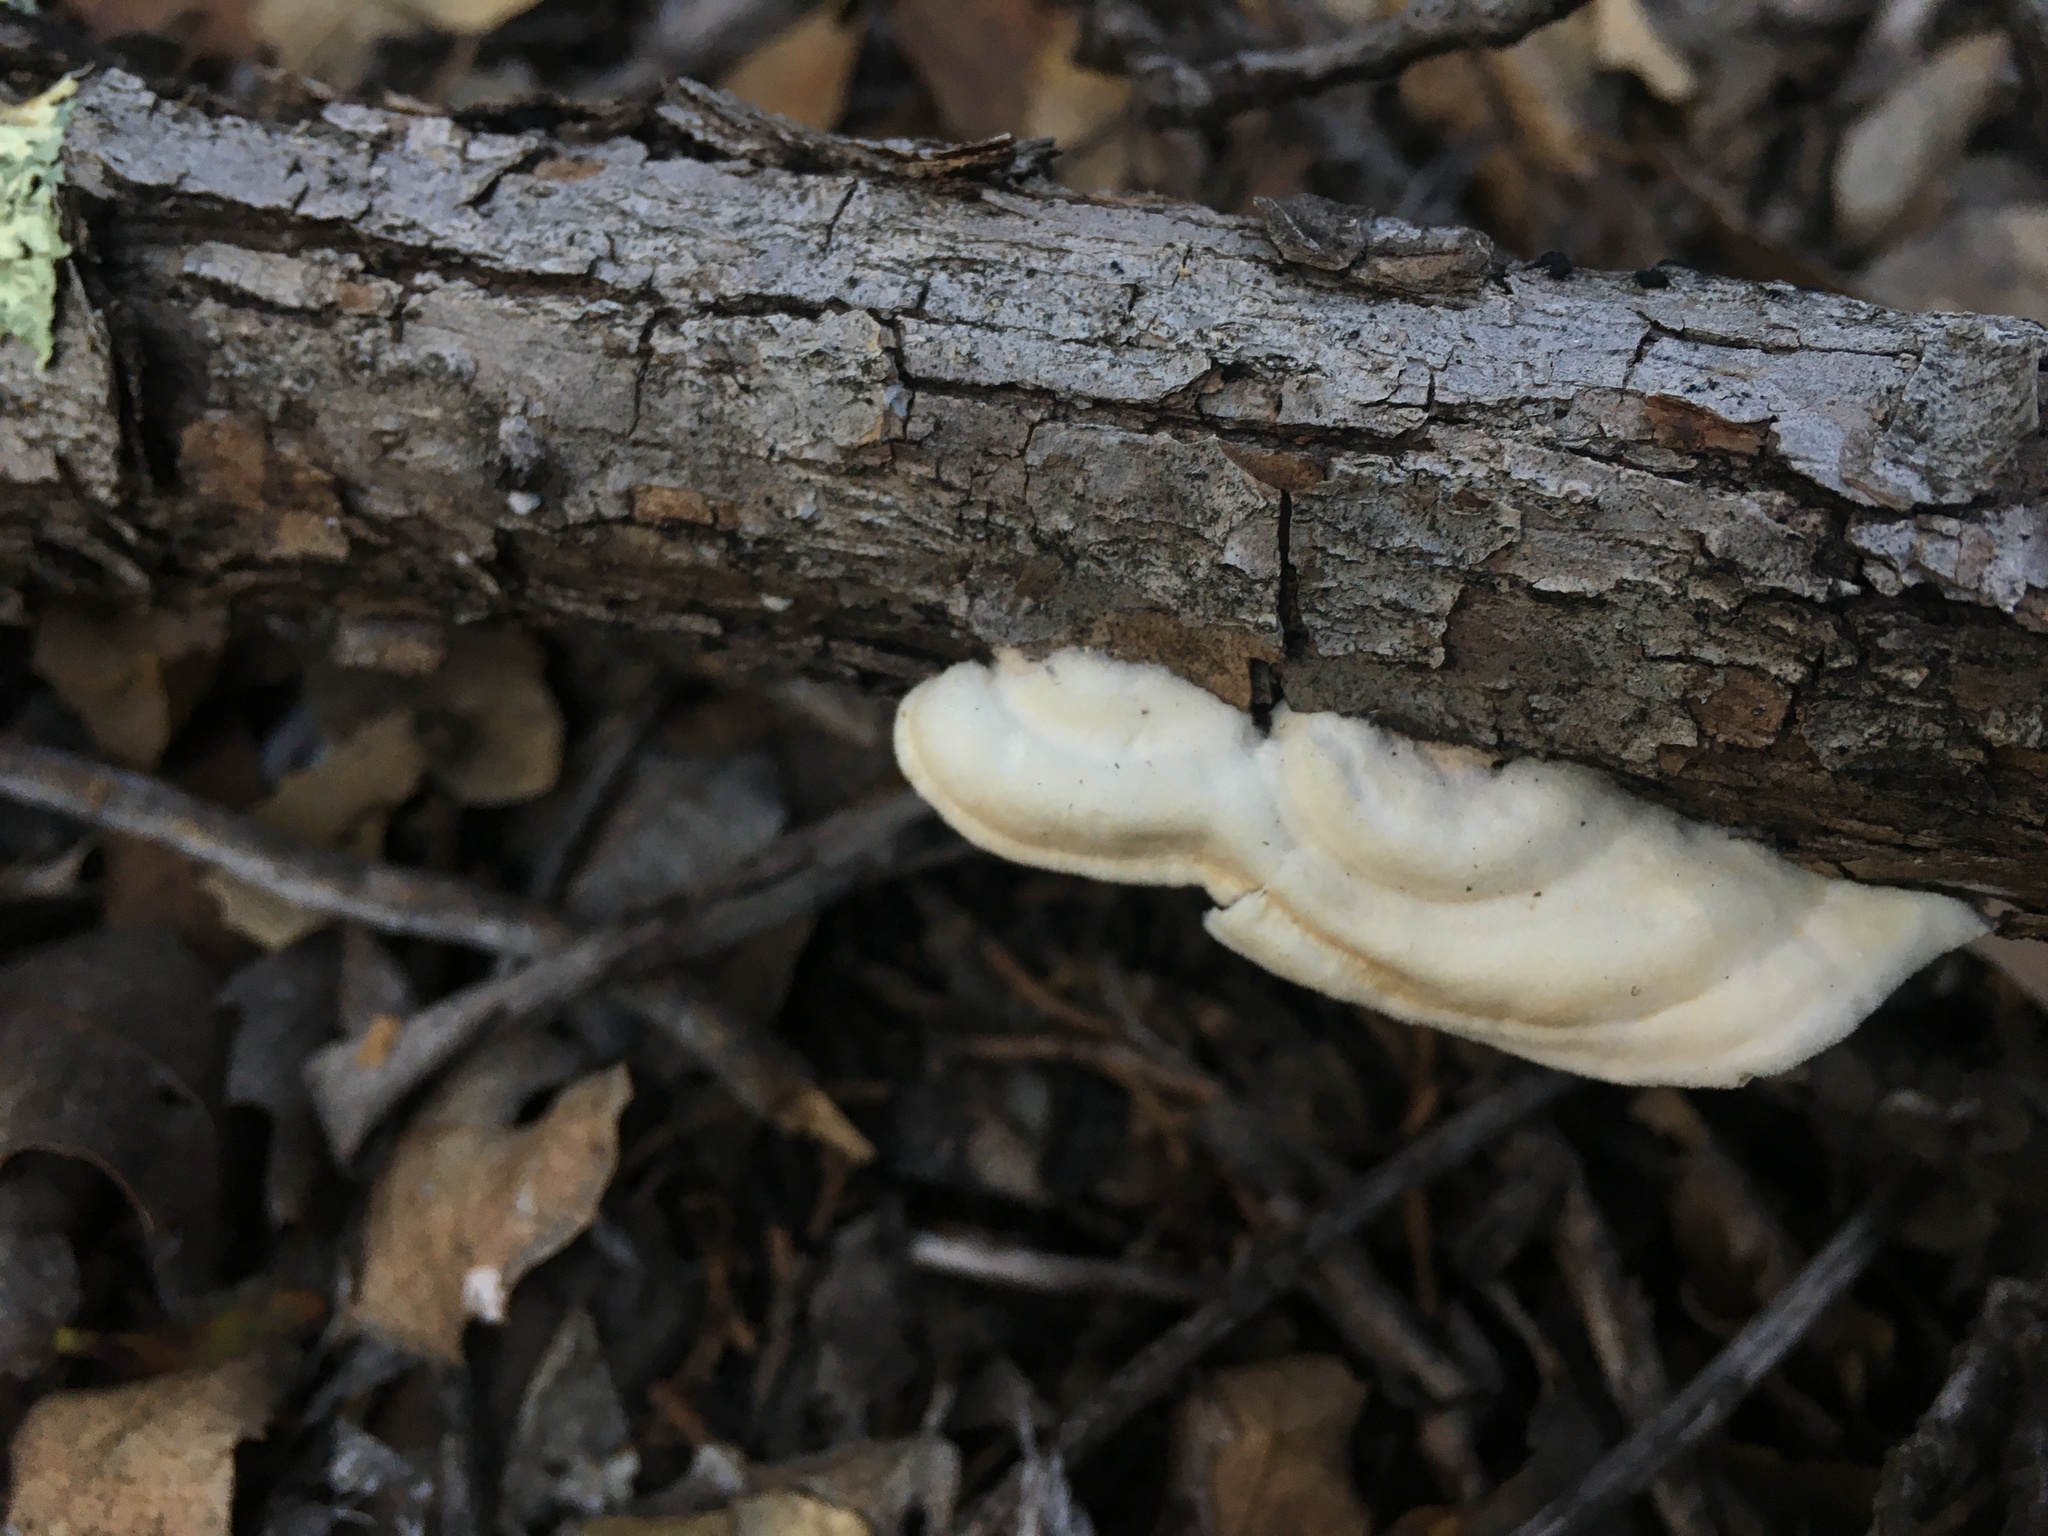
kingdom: Fungi
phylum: Basidiomycota
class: Agaricomycetes
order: Polyporales
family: Irpicaceae
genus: Byssomerulius
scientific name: Byssomerulius corium
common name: Netted crust
